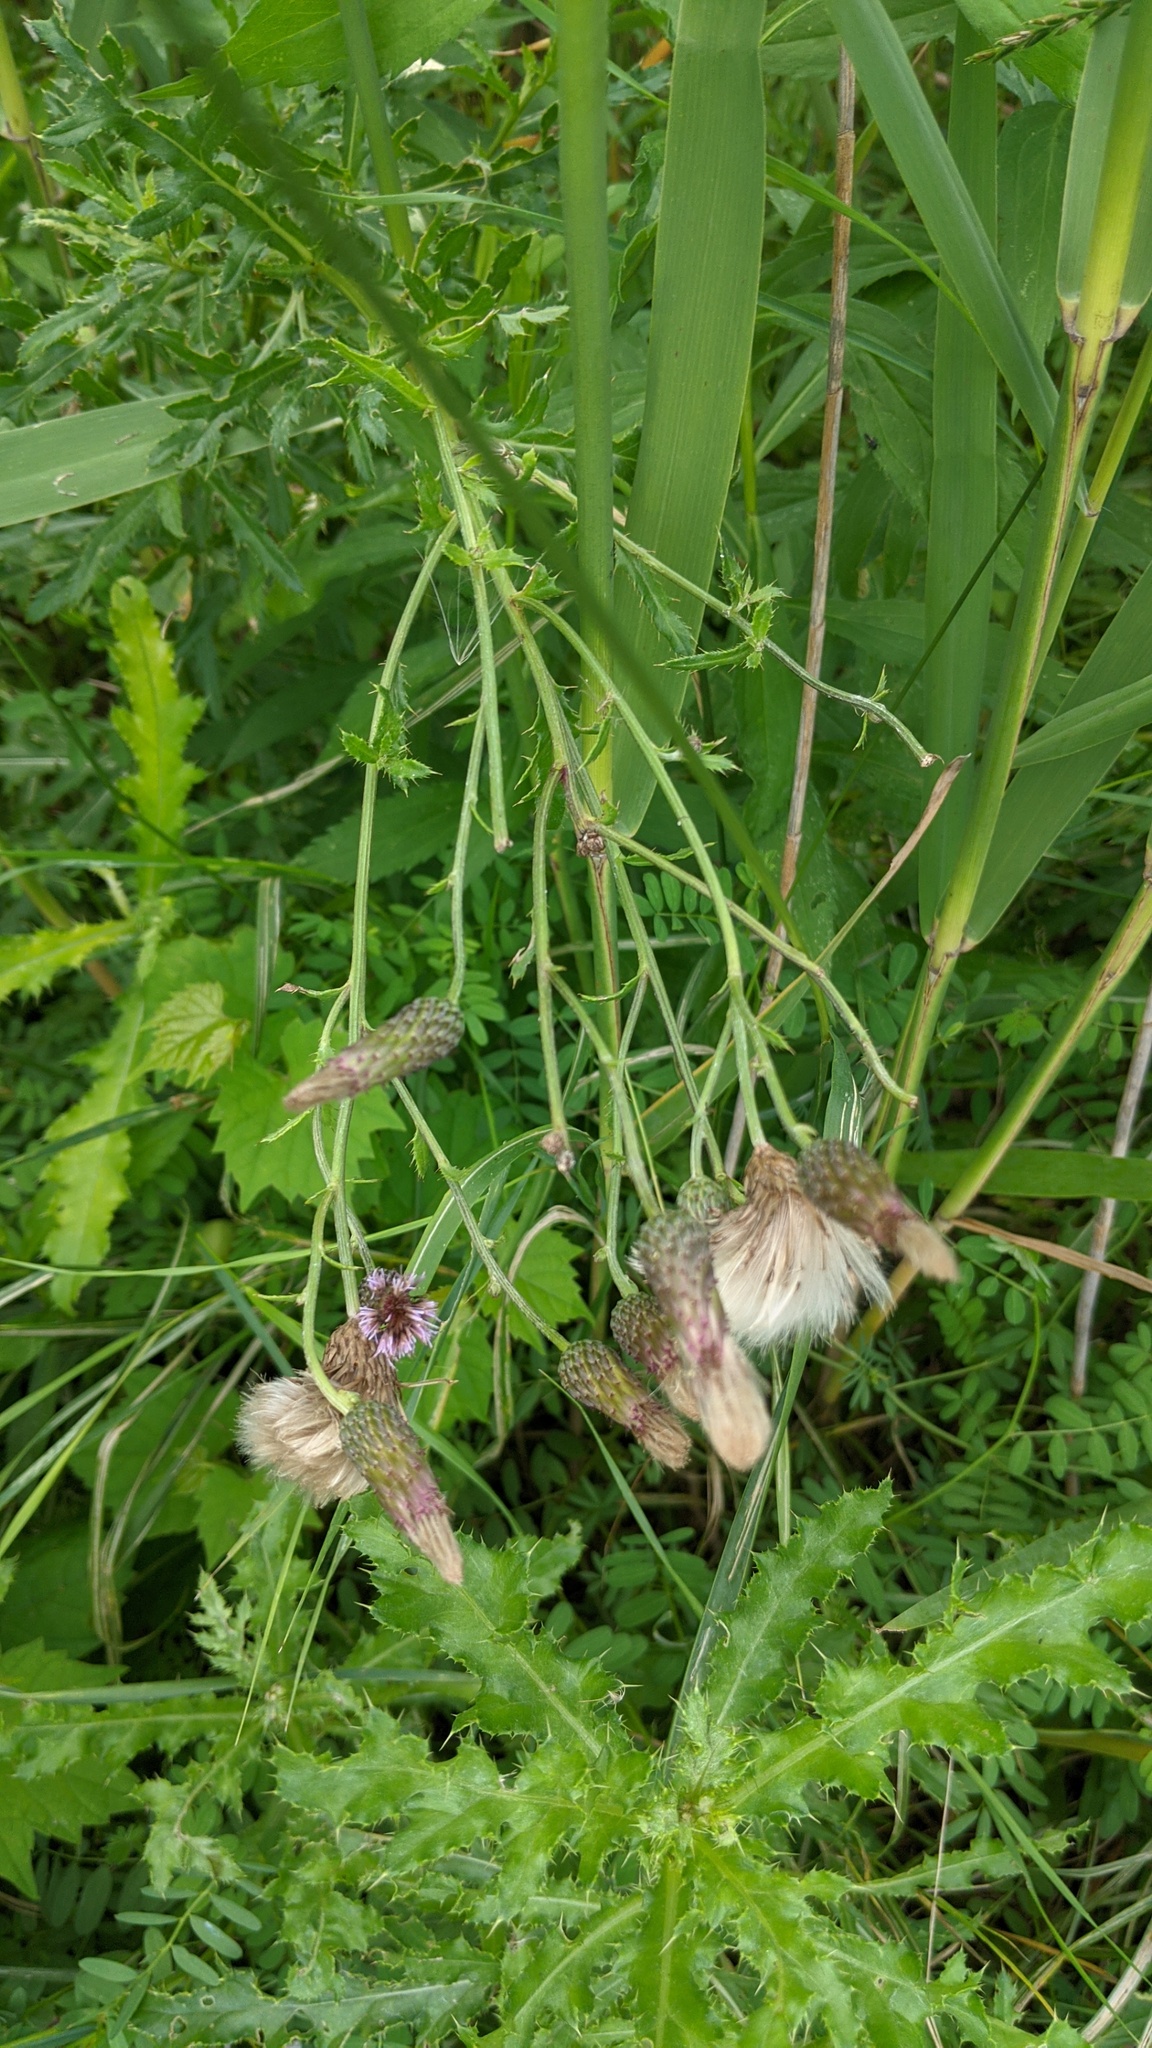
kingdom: Plantae
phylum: Tracheophyta
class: Magnoliopsida
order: Asterales
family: Asteraceae
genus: Cirsium
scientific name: Cirsium arvense
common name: Creeping thistle
